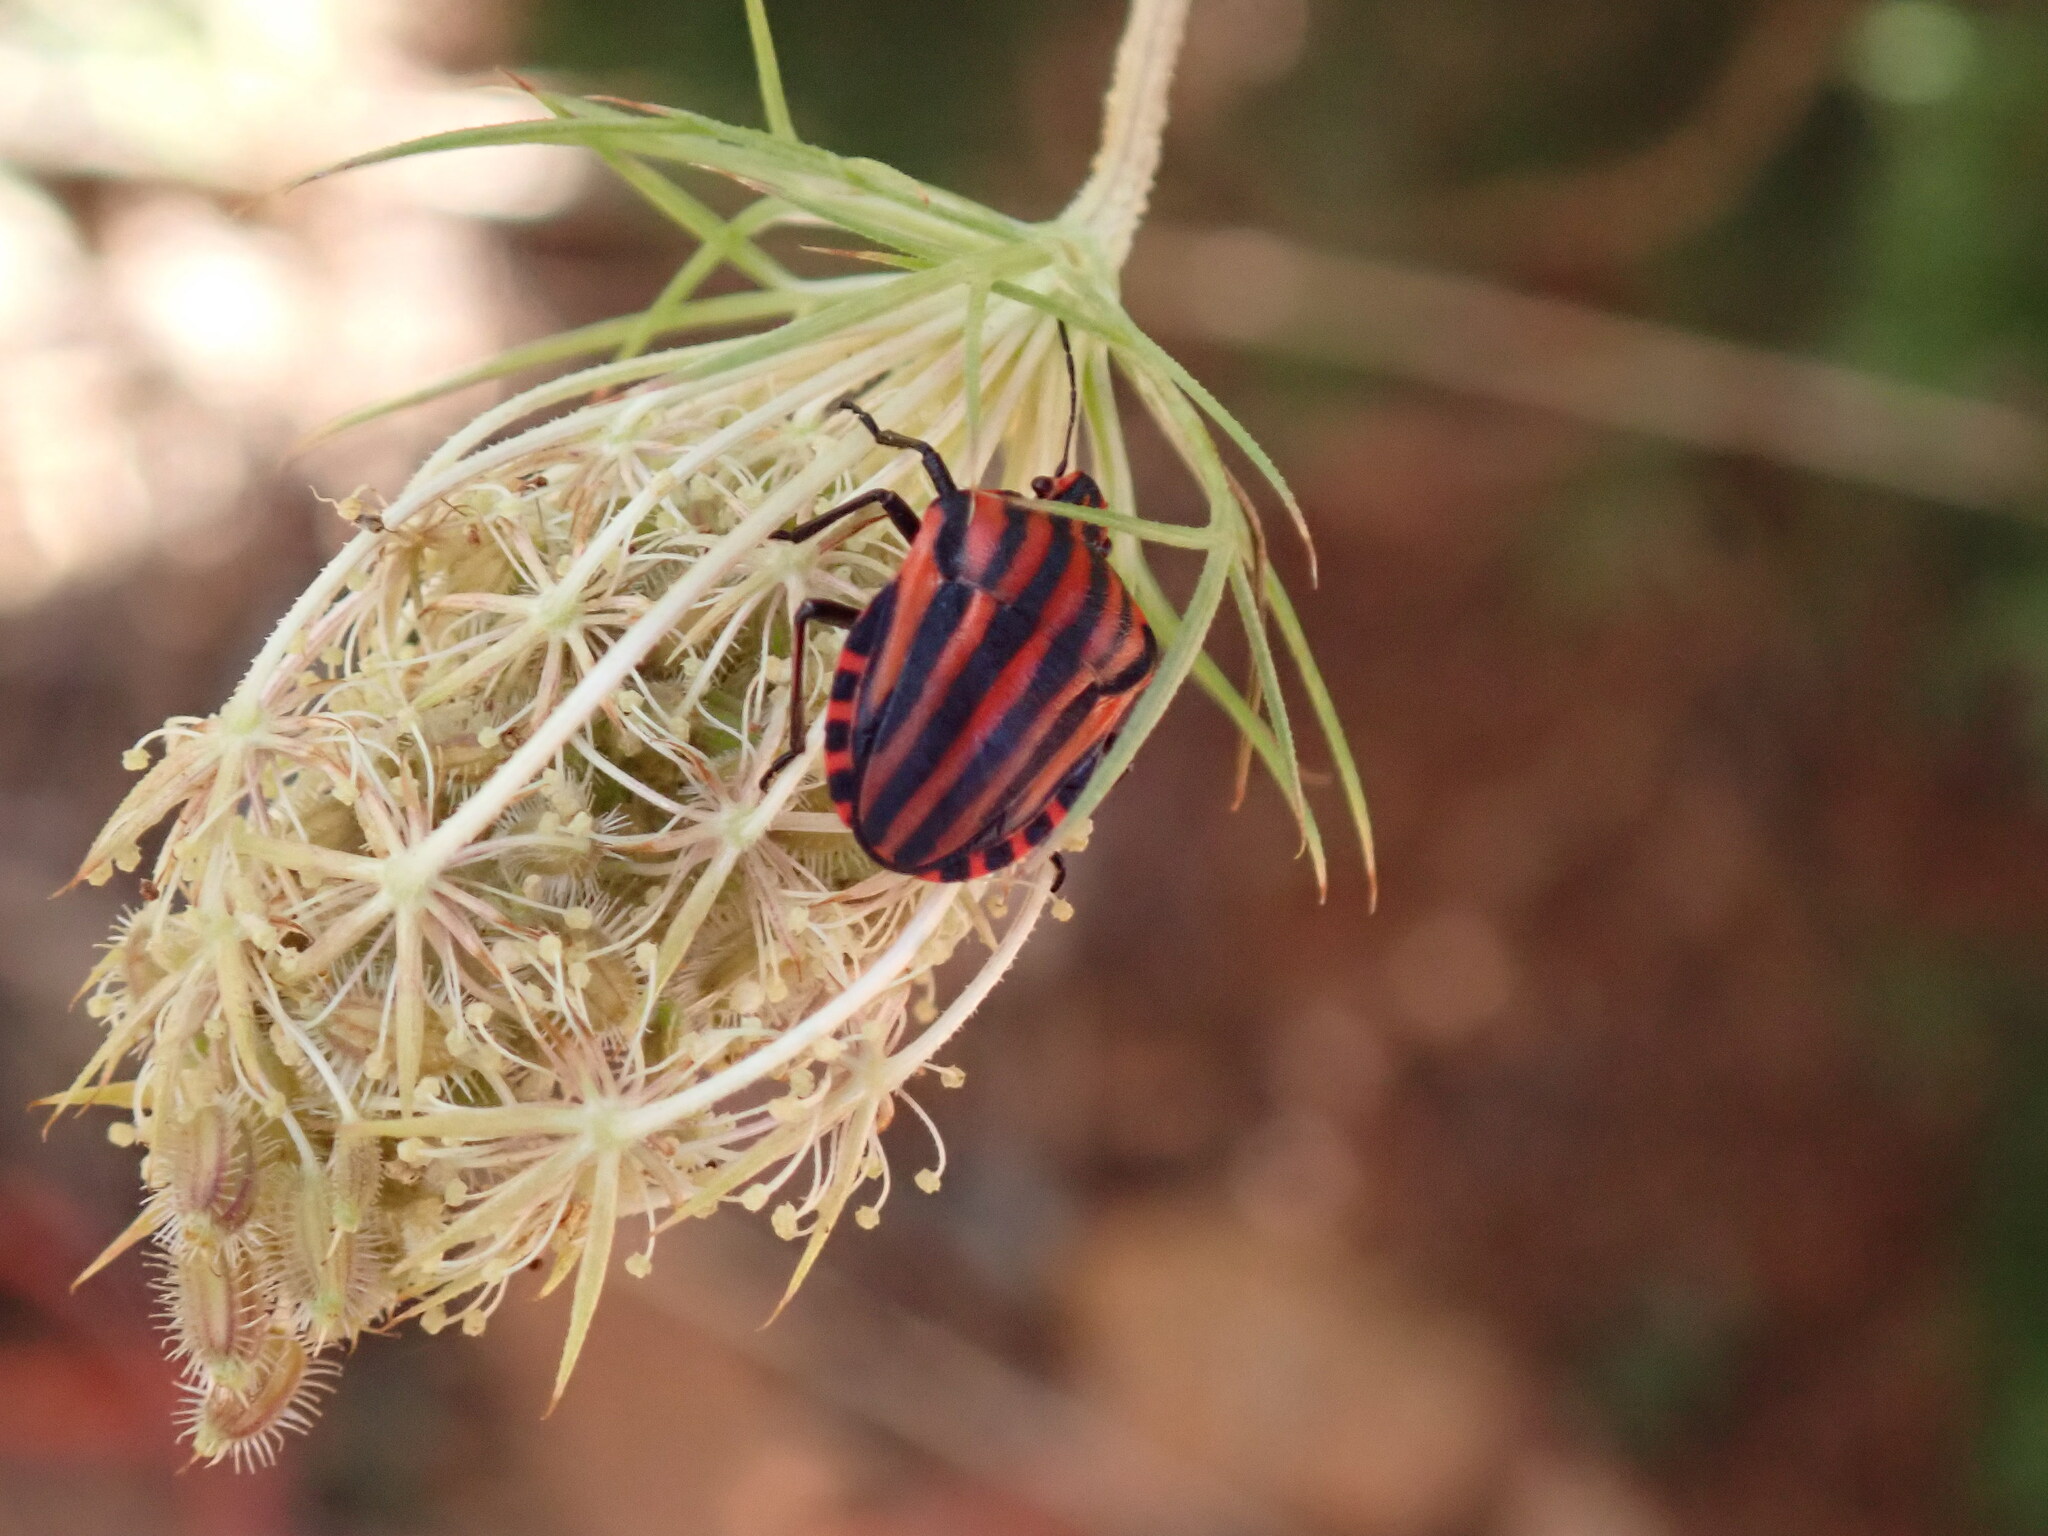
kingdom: Animalia
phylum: Arthropoda
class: Insecta
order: Hemiptera
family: Pentatomidae
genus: Graphosoma
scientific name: Graphosoma italicum
